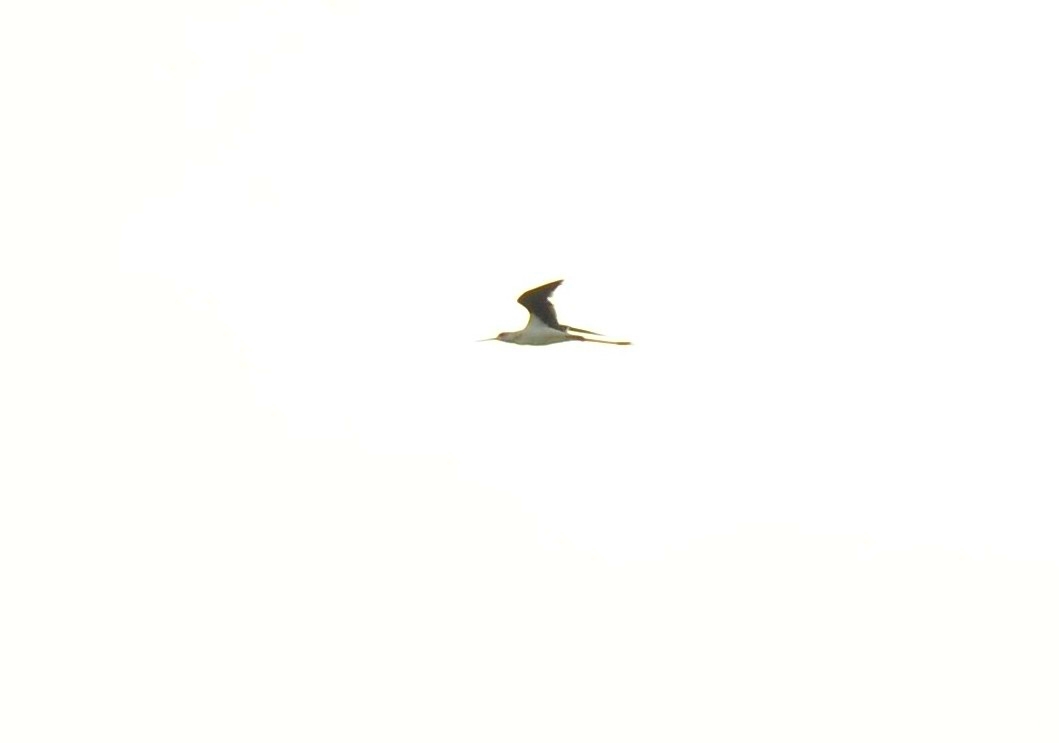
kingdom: Animalia
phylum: Chordata
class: Aves
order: Charadriiformes
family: Recurvirostridae
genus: Himantopus
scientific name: Himantopus himantopus
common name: Black-winged stilt
